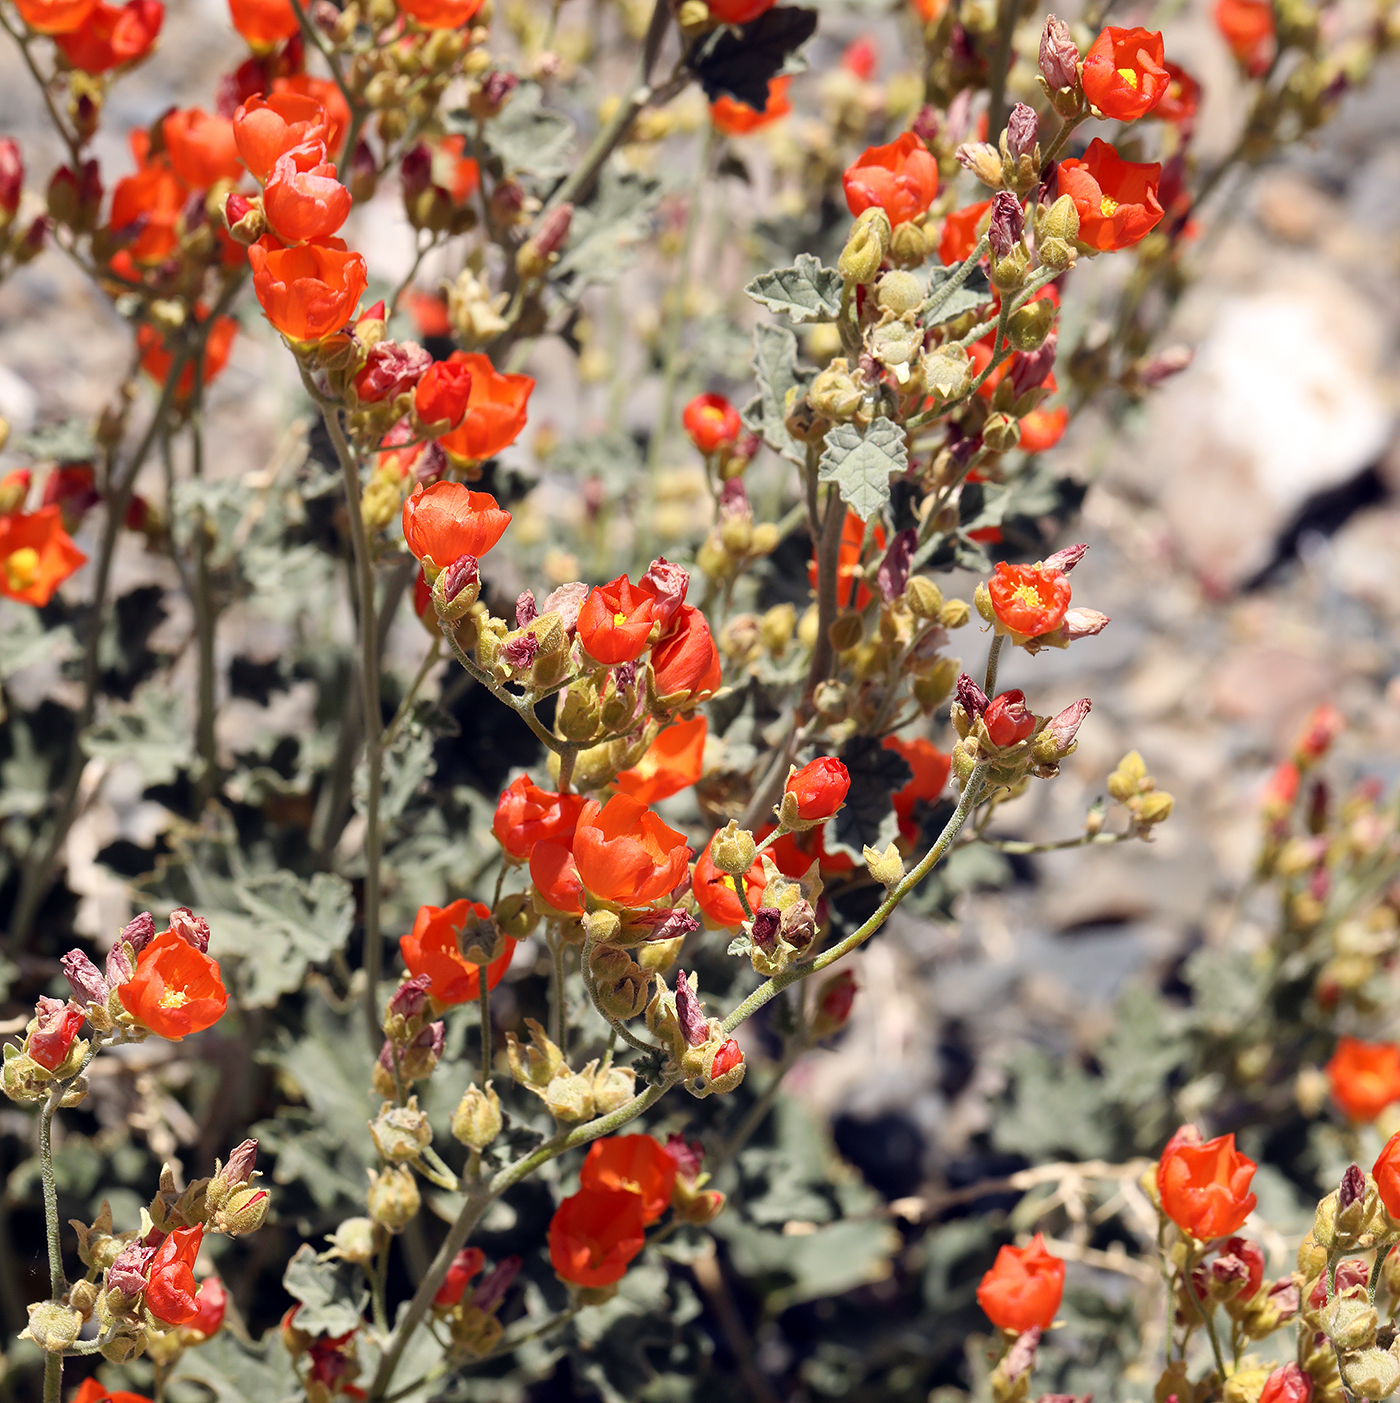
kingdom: Plantae
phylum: Tracheophyta
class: Magnoliopsida
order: Malvales
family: Malvaceae
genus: Sphaeralcea
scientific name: Sphaeralcea ambigua
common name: Apricot globe-mallow
